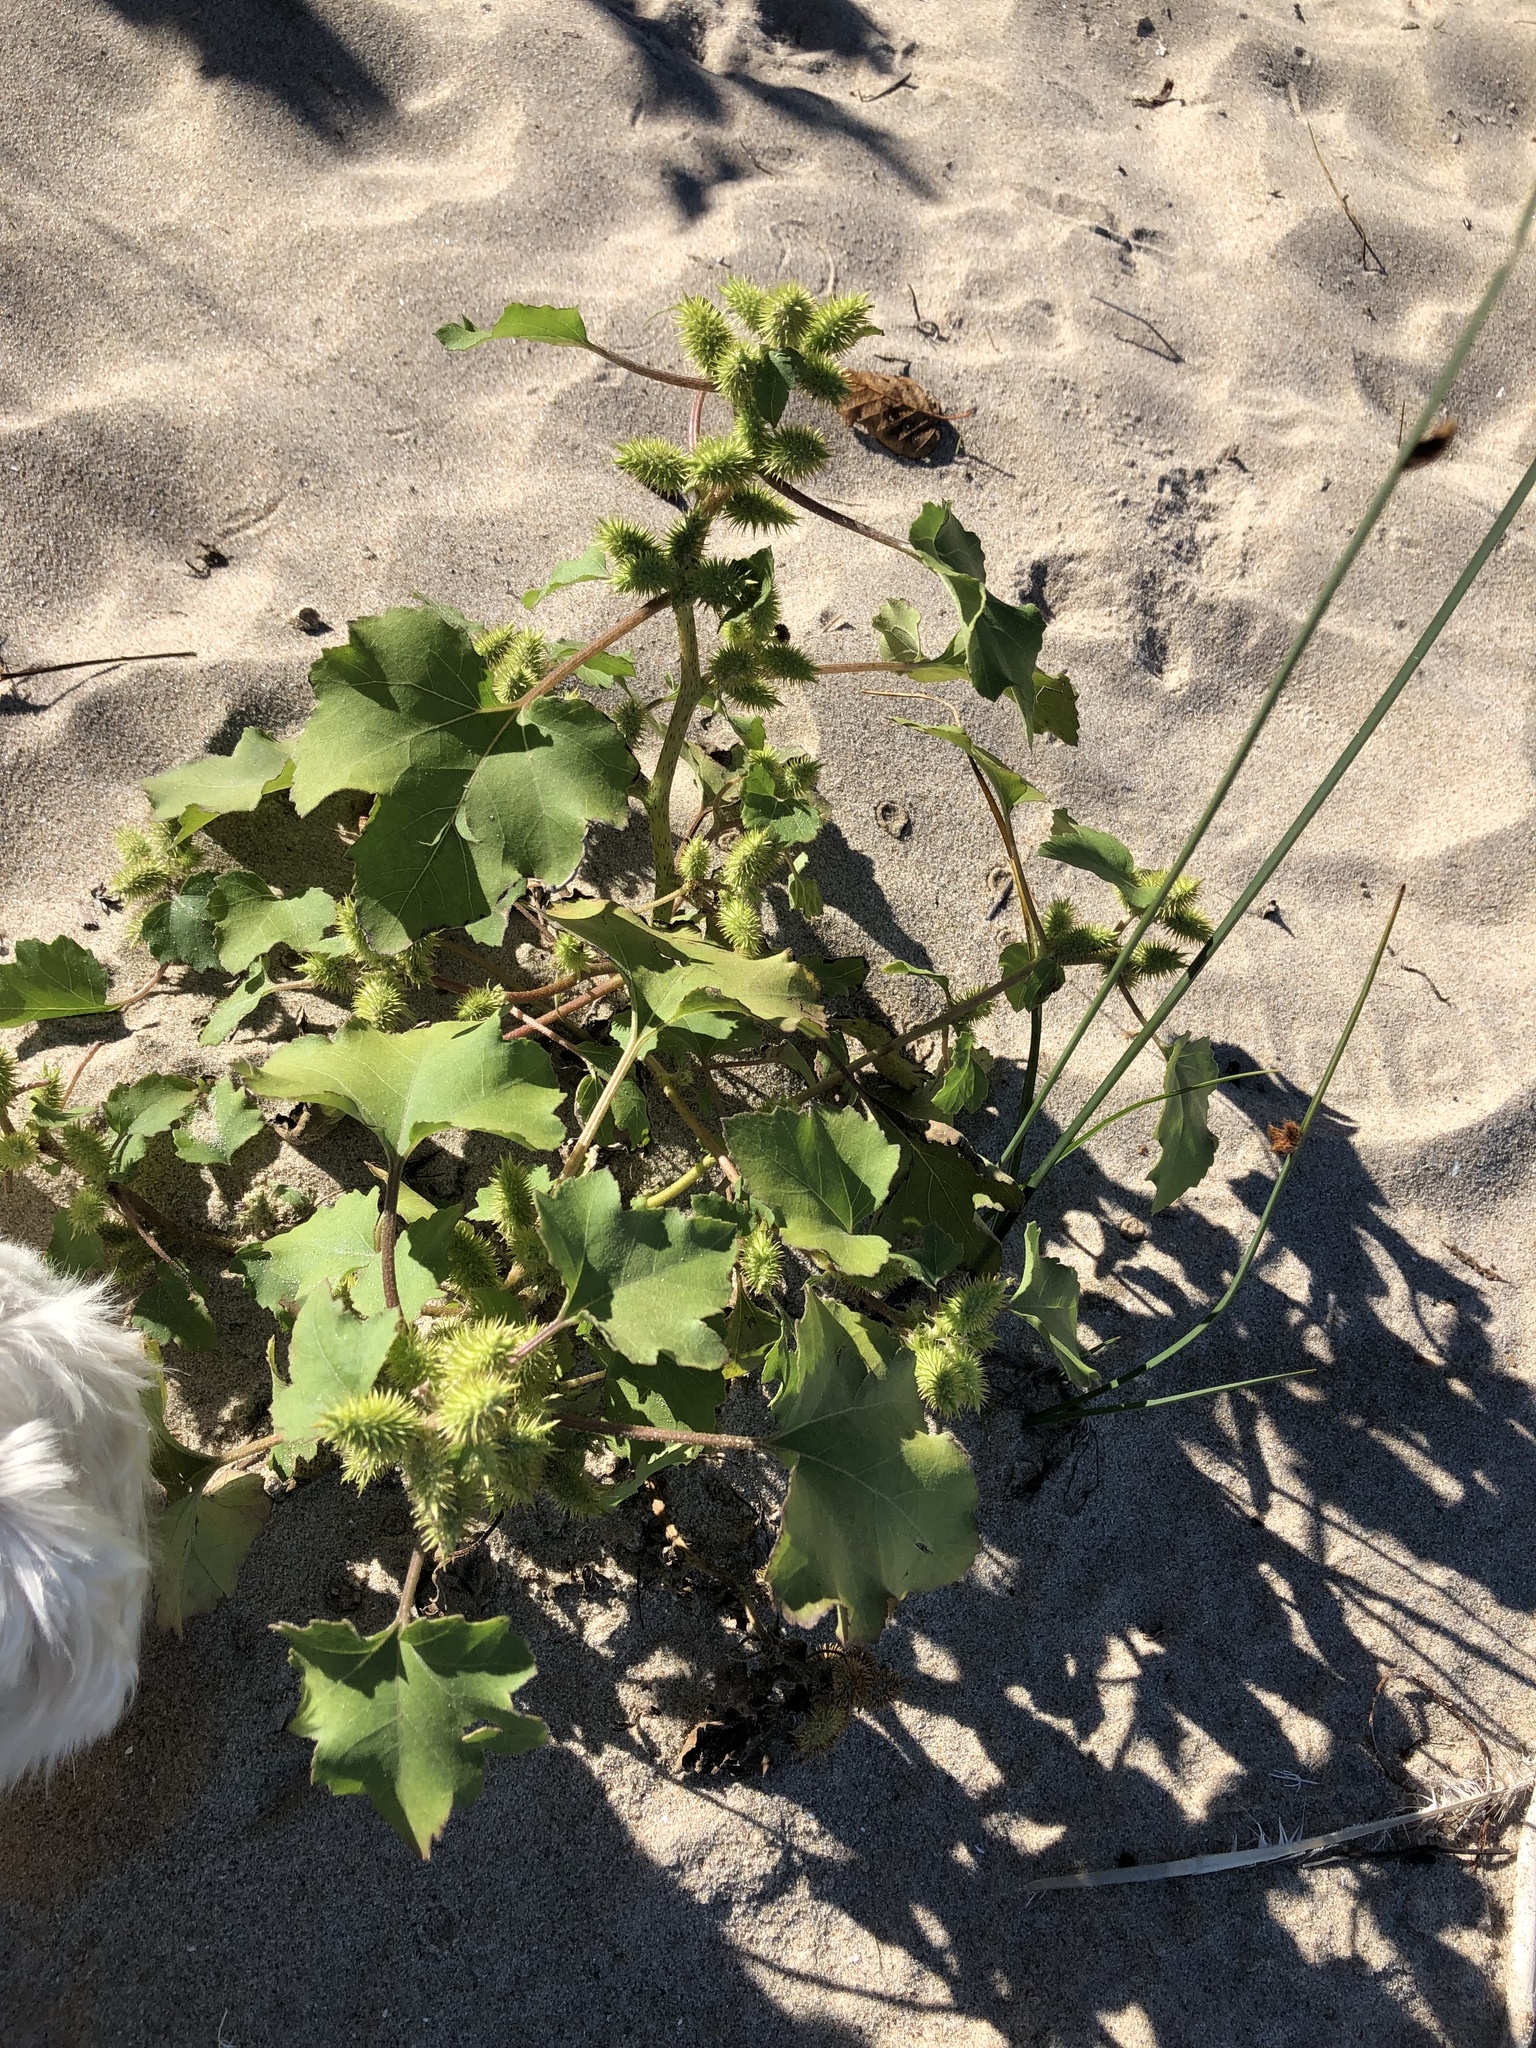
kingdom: Plantae
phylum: Tracheophyta
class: Magnoliopsida
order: Asterales
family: Asteraceae
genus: Xanthium
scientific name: Xanthium strumarium
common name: Rough cocklebur
